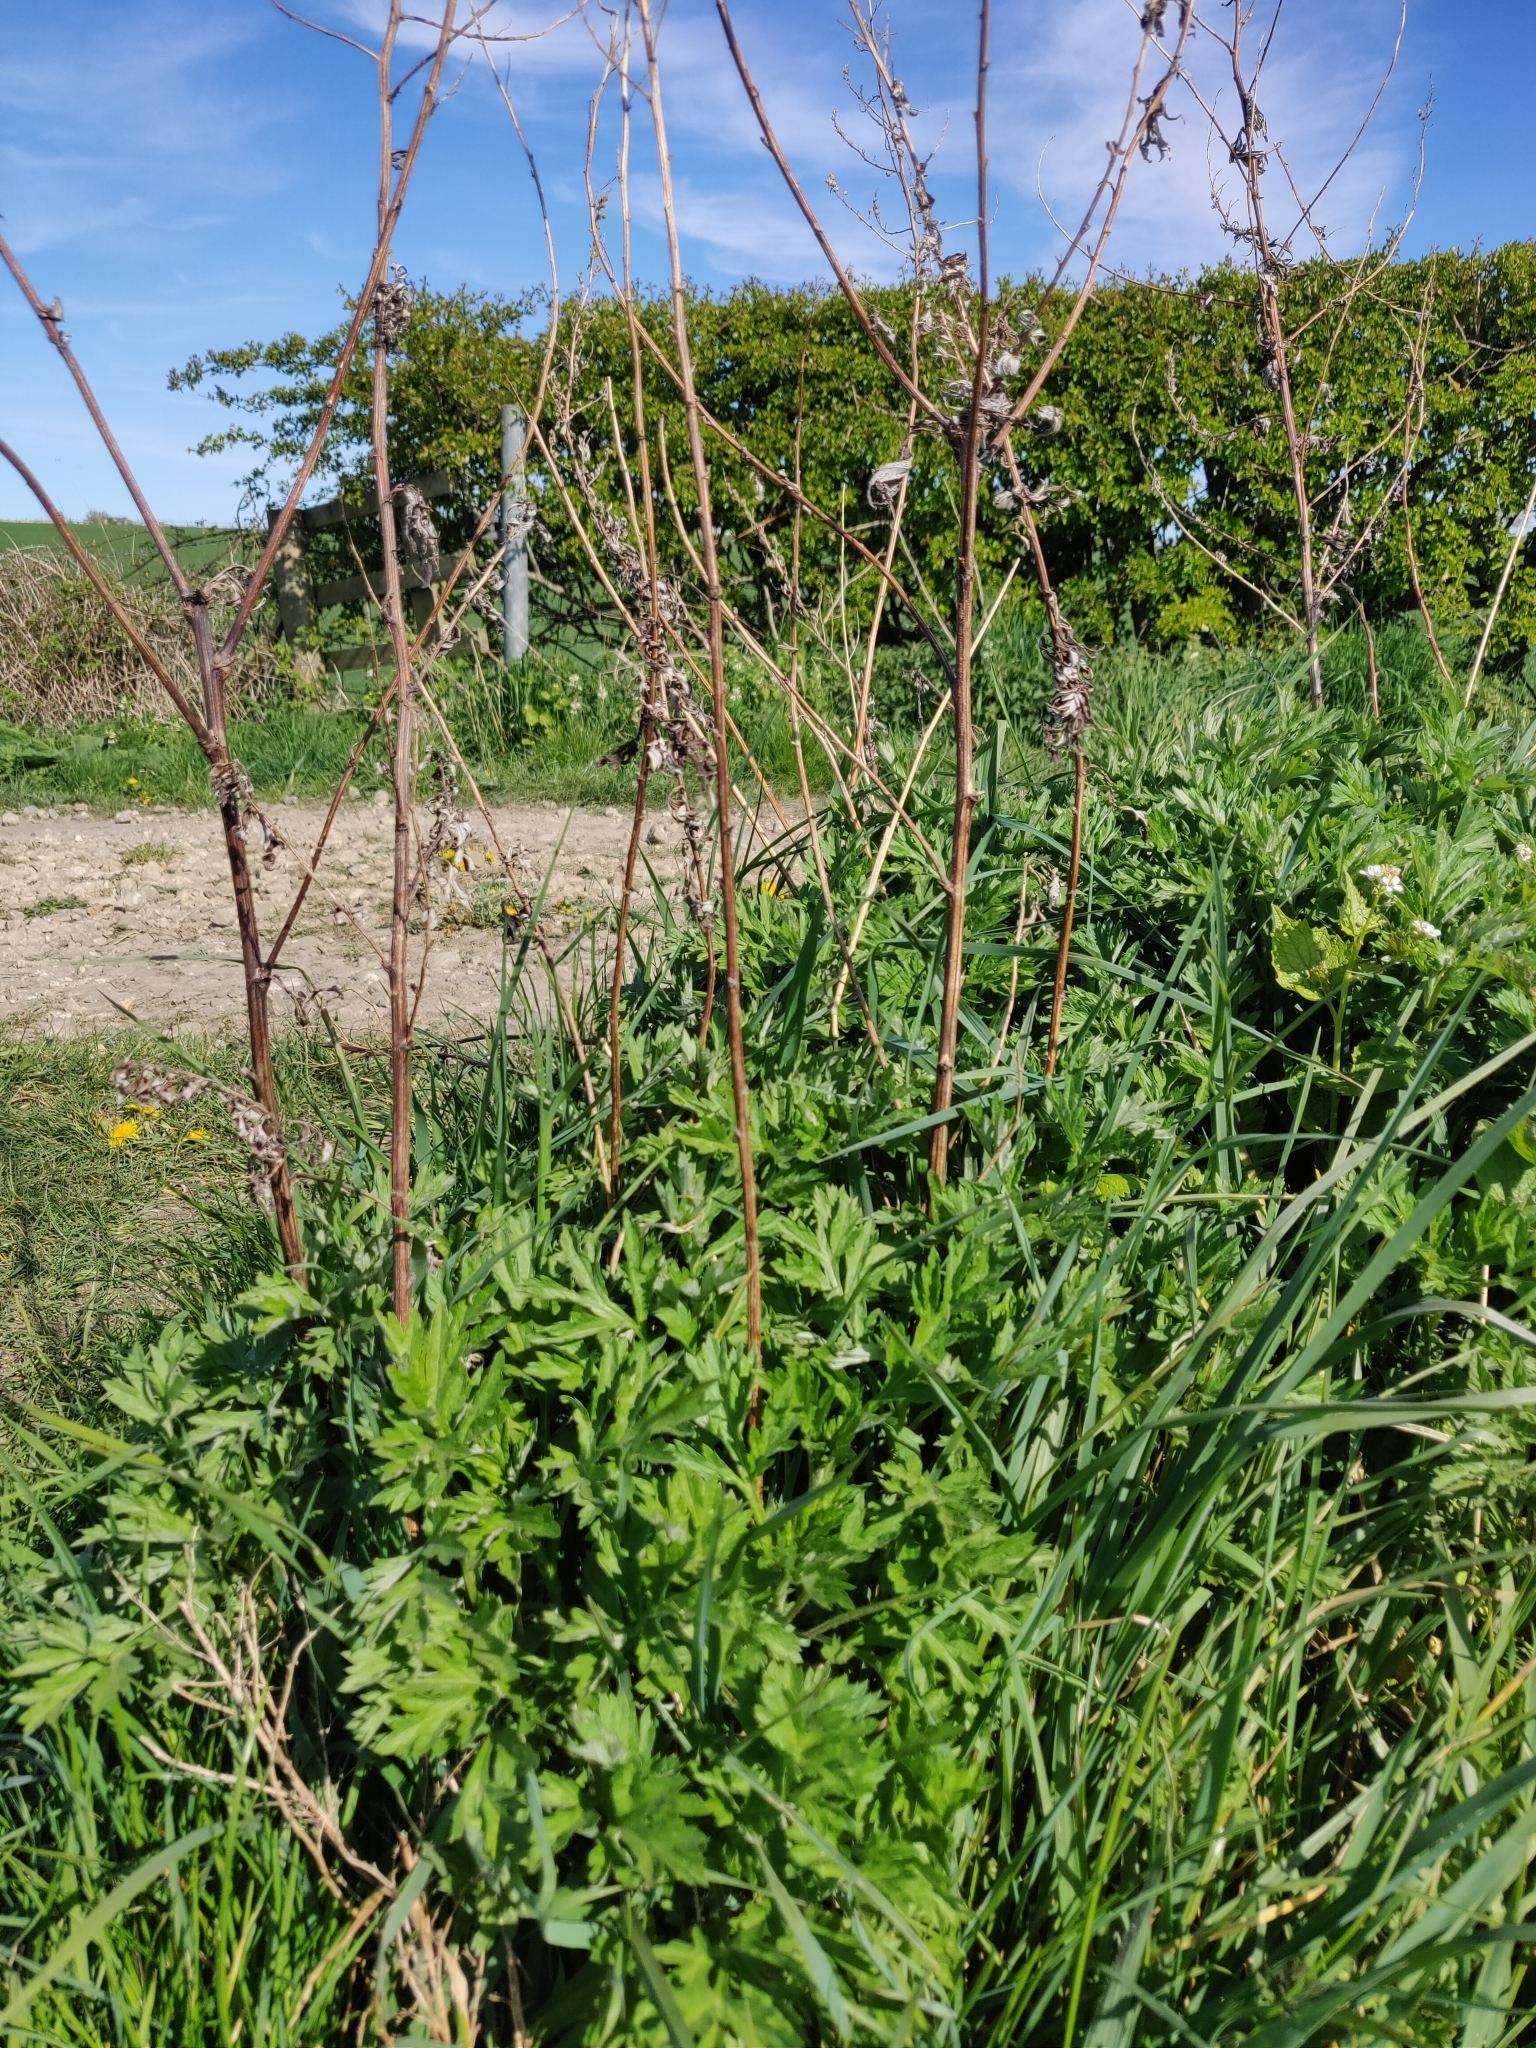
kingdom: Plantae
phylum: Tracheophyta
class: Magnoliopsida
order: Asterales
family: Asteraceae
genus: Artemisia
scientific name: Artemisia vulgaris
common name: Mugwort
